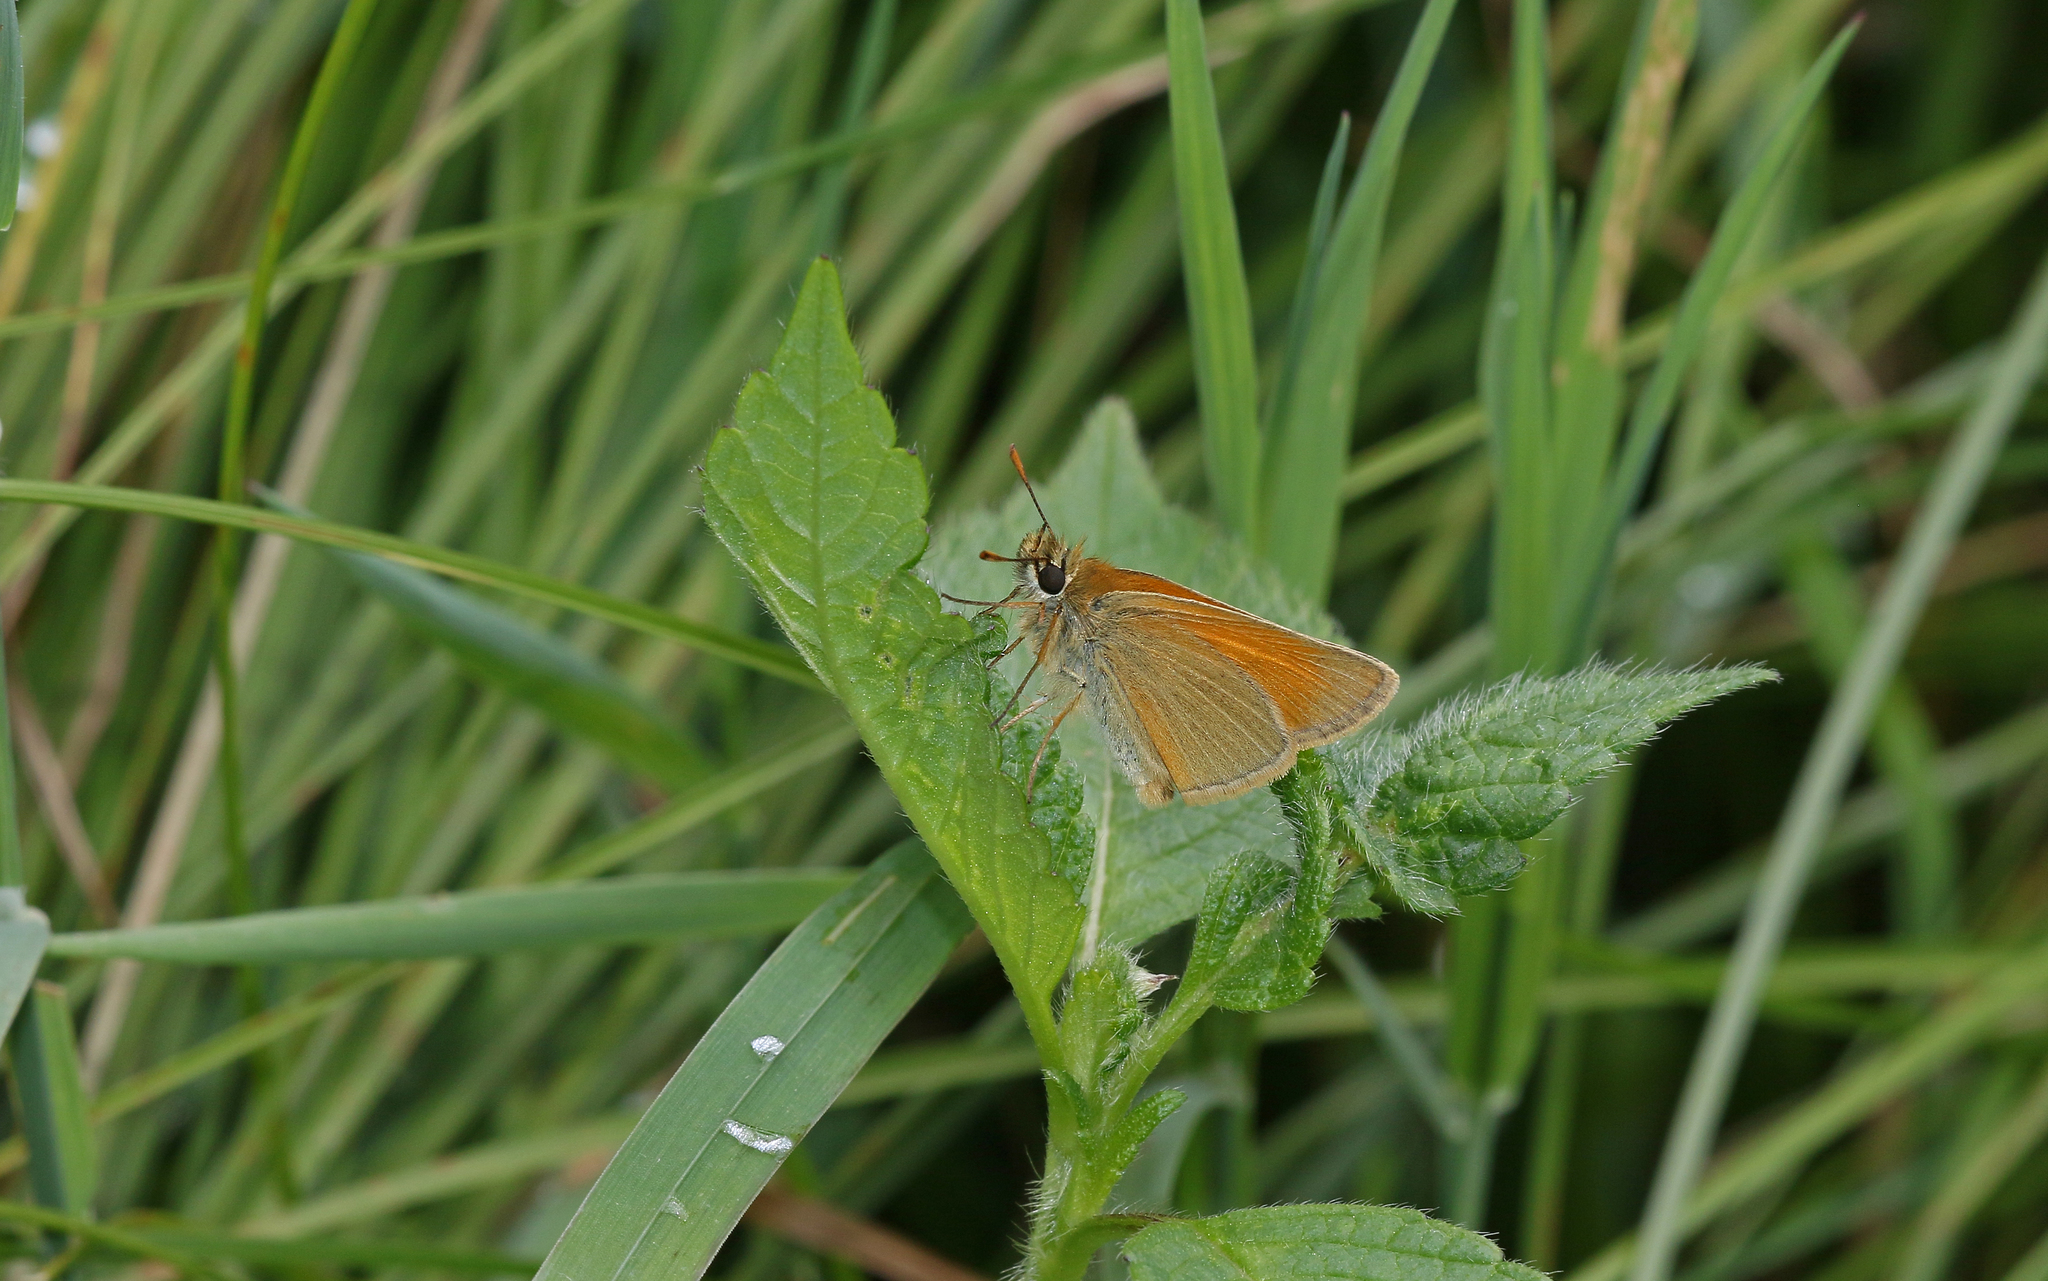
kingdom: Animalia
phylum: Arthropoda
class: Insecta
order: Lepidoptera
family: Hesperiidae
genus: Thymelicus
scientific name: Thymelicus sylvestris
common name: Small skipper
